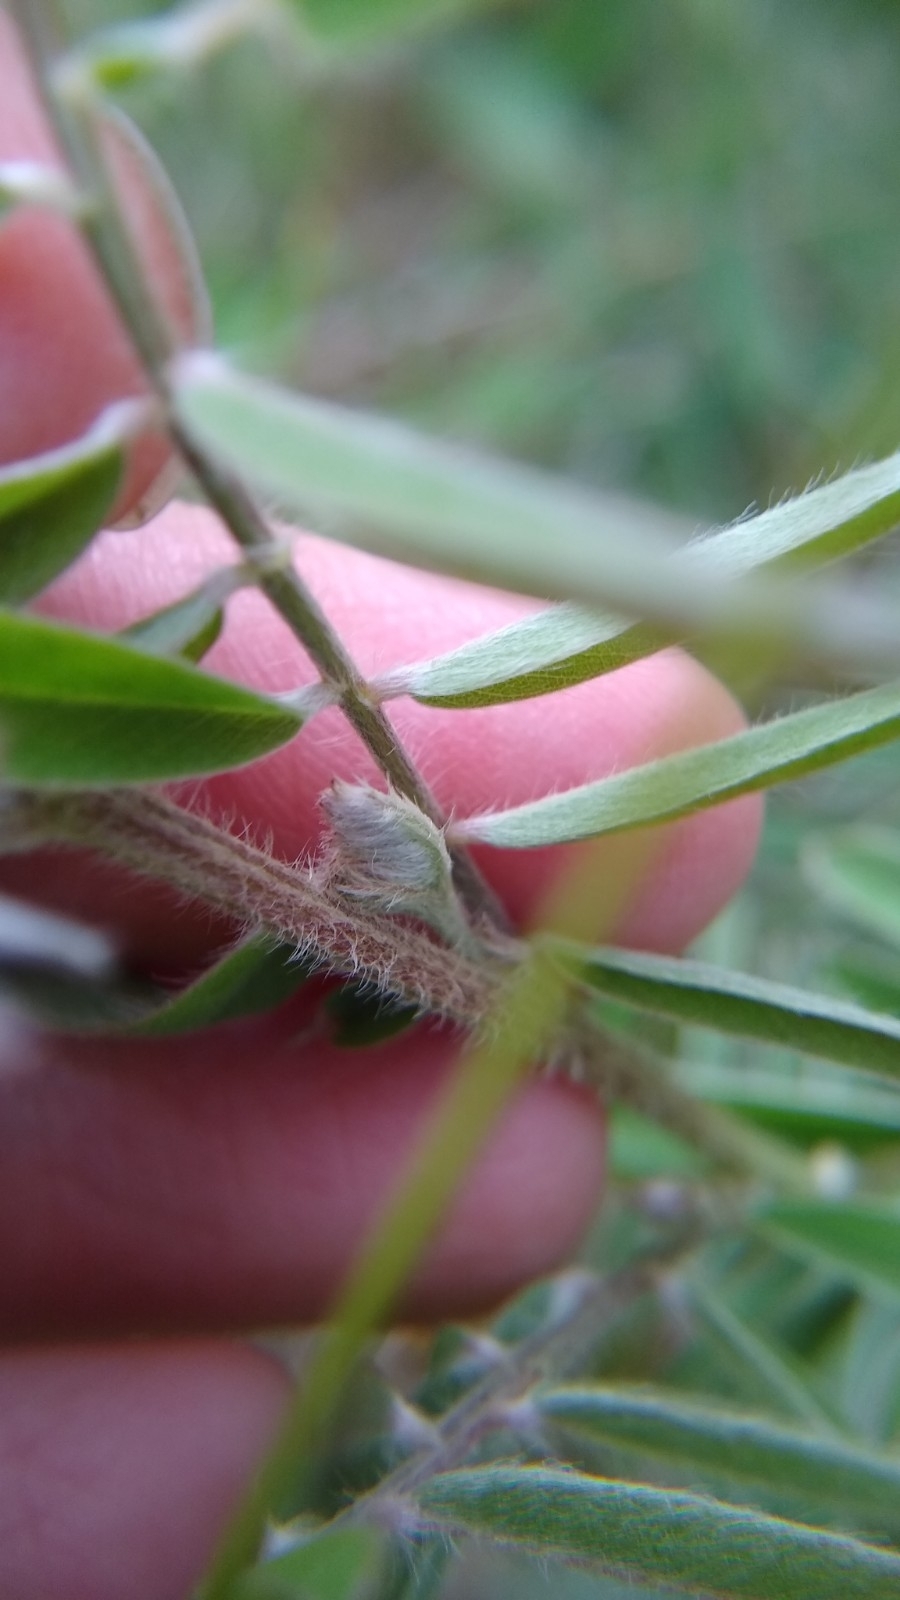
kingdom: Plantae
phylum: Tracheophyta
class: Magnoliopsida
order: Fabales
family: Fabaceae
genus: Tephrosia
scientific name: Tephrosia virginiana
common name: Rabbit-pea
